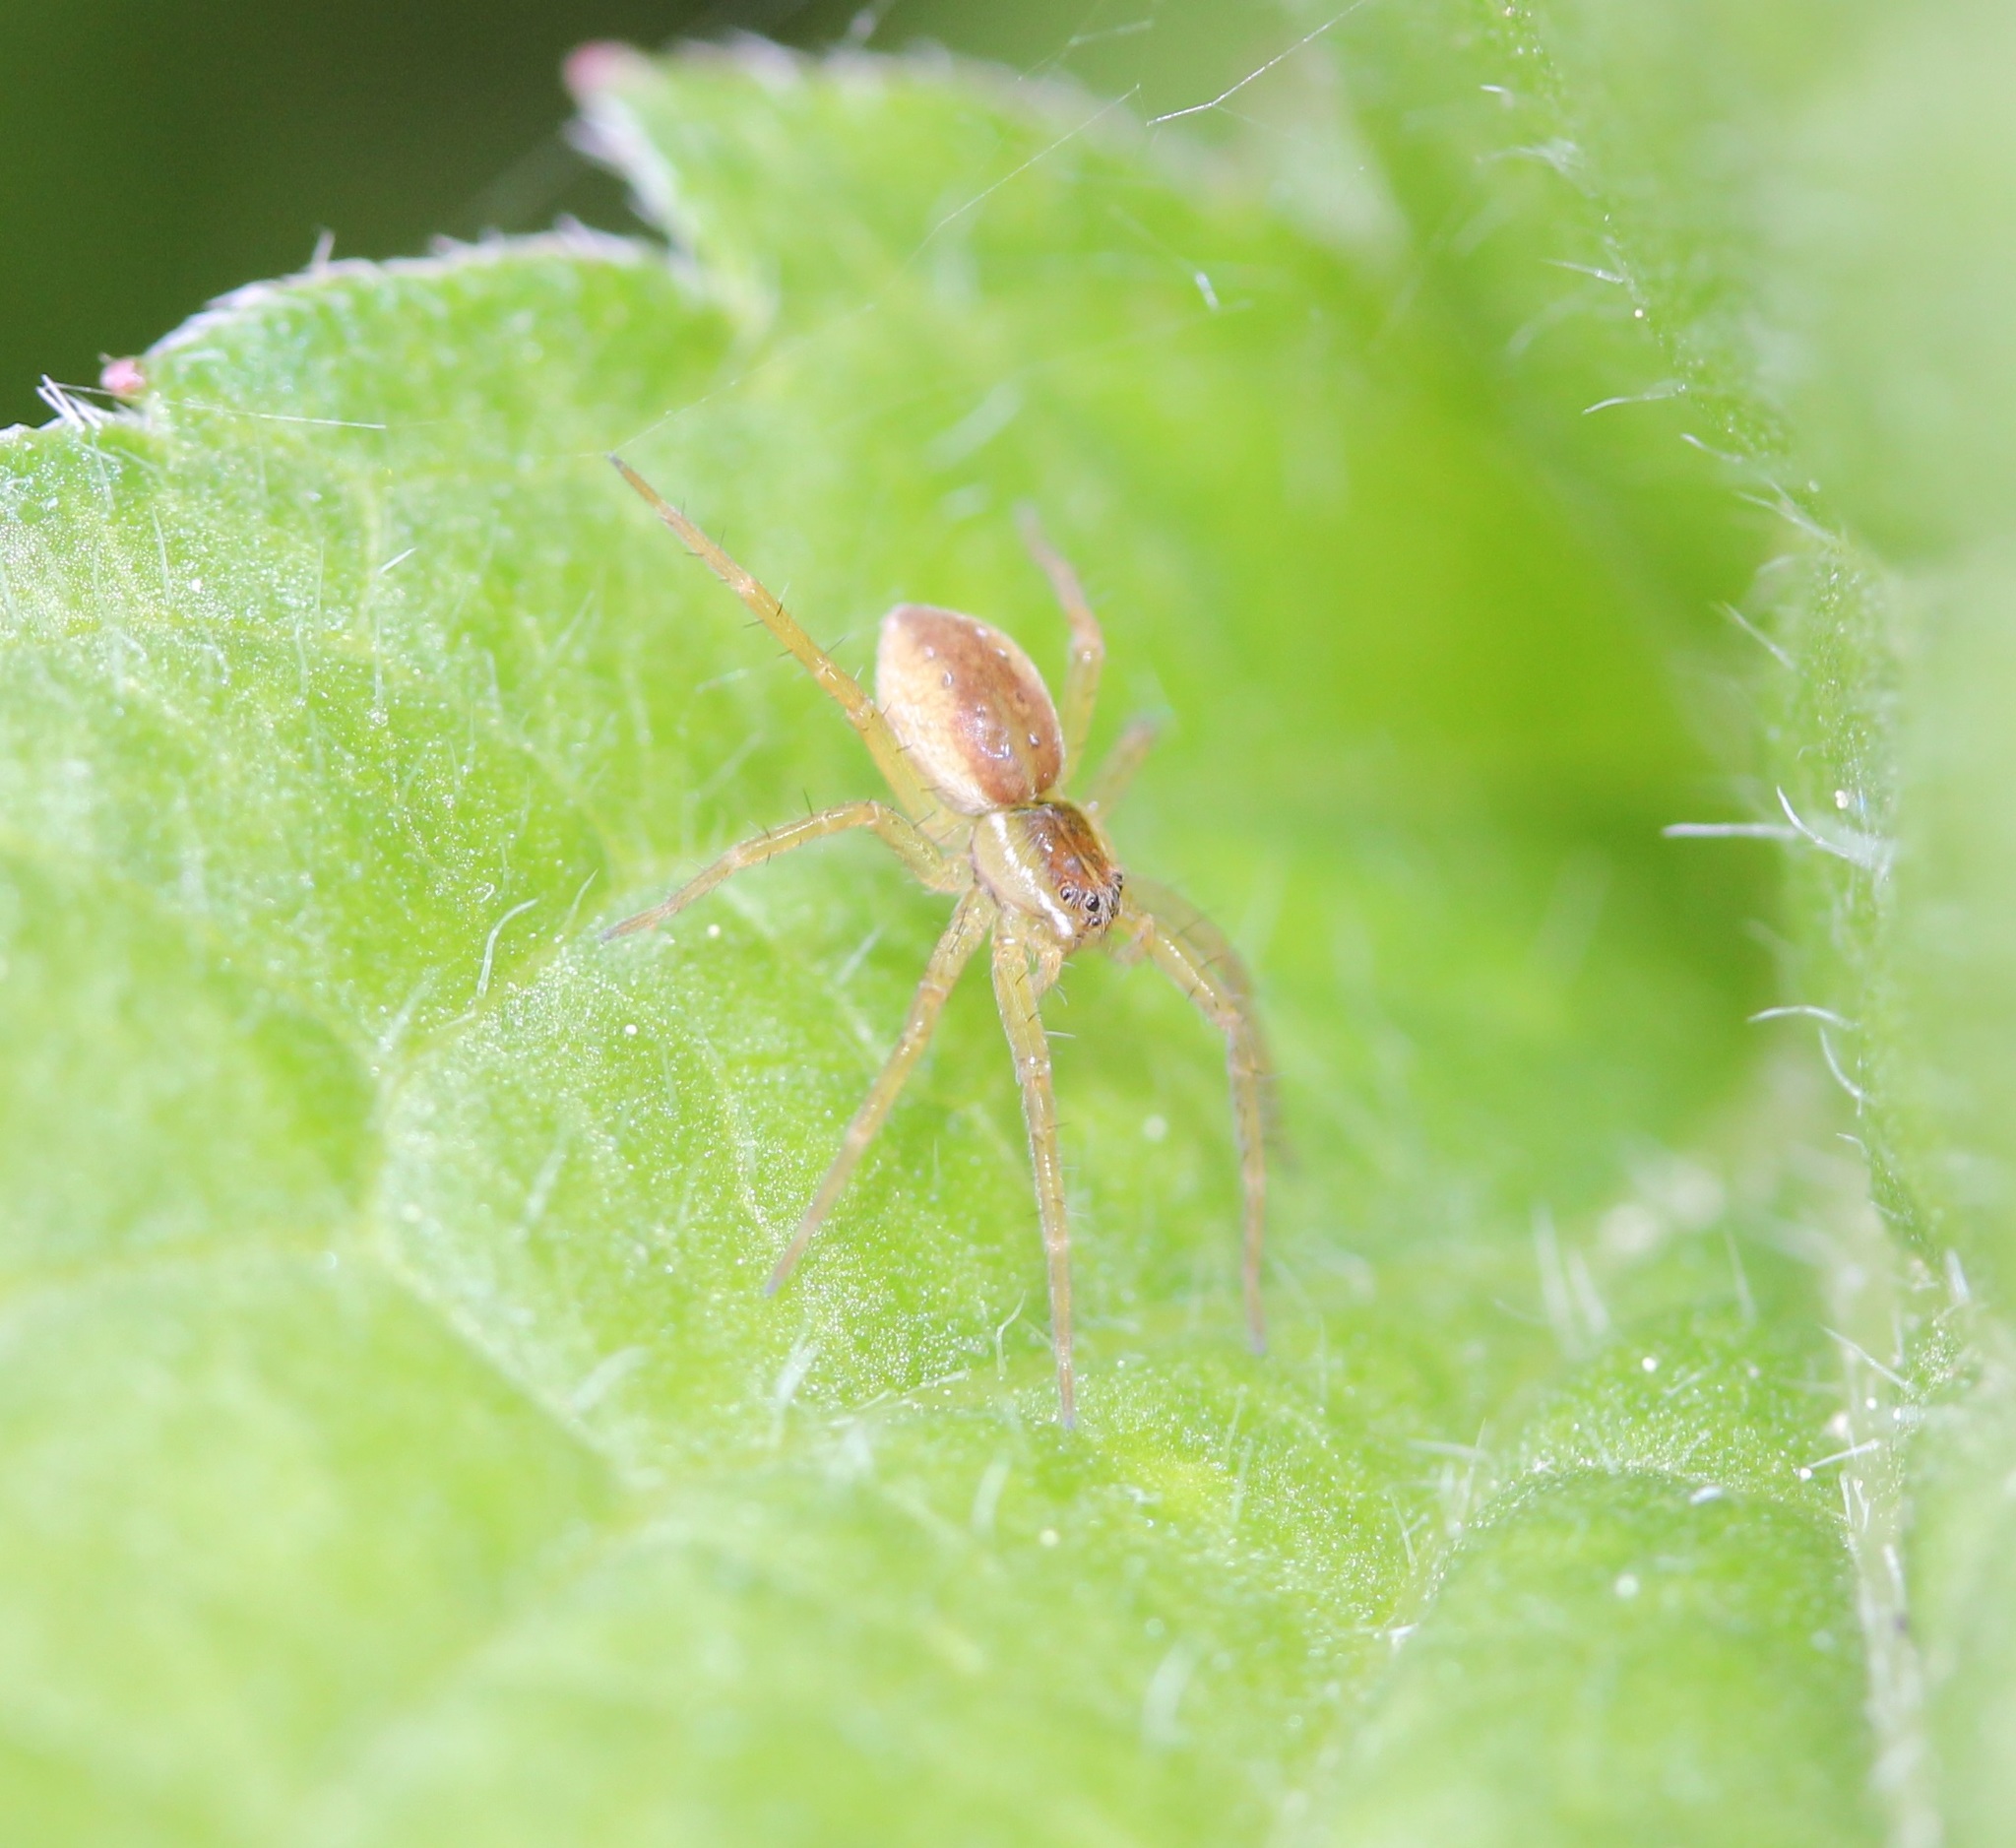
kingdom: Animalia
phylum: Arthropoda
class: Arachnida
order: Araneae
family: Pisauridae
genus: Pisaurina
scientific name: Pisaurina mira
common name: American nursery web spider
